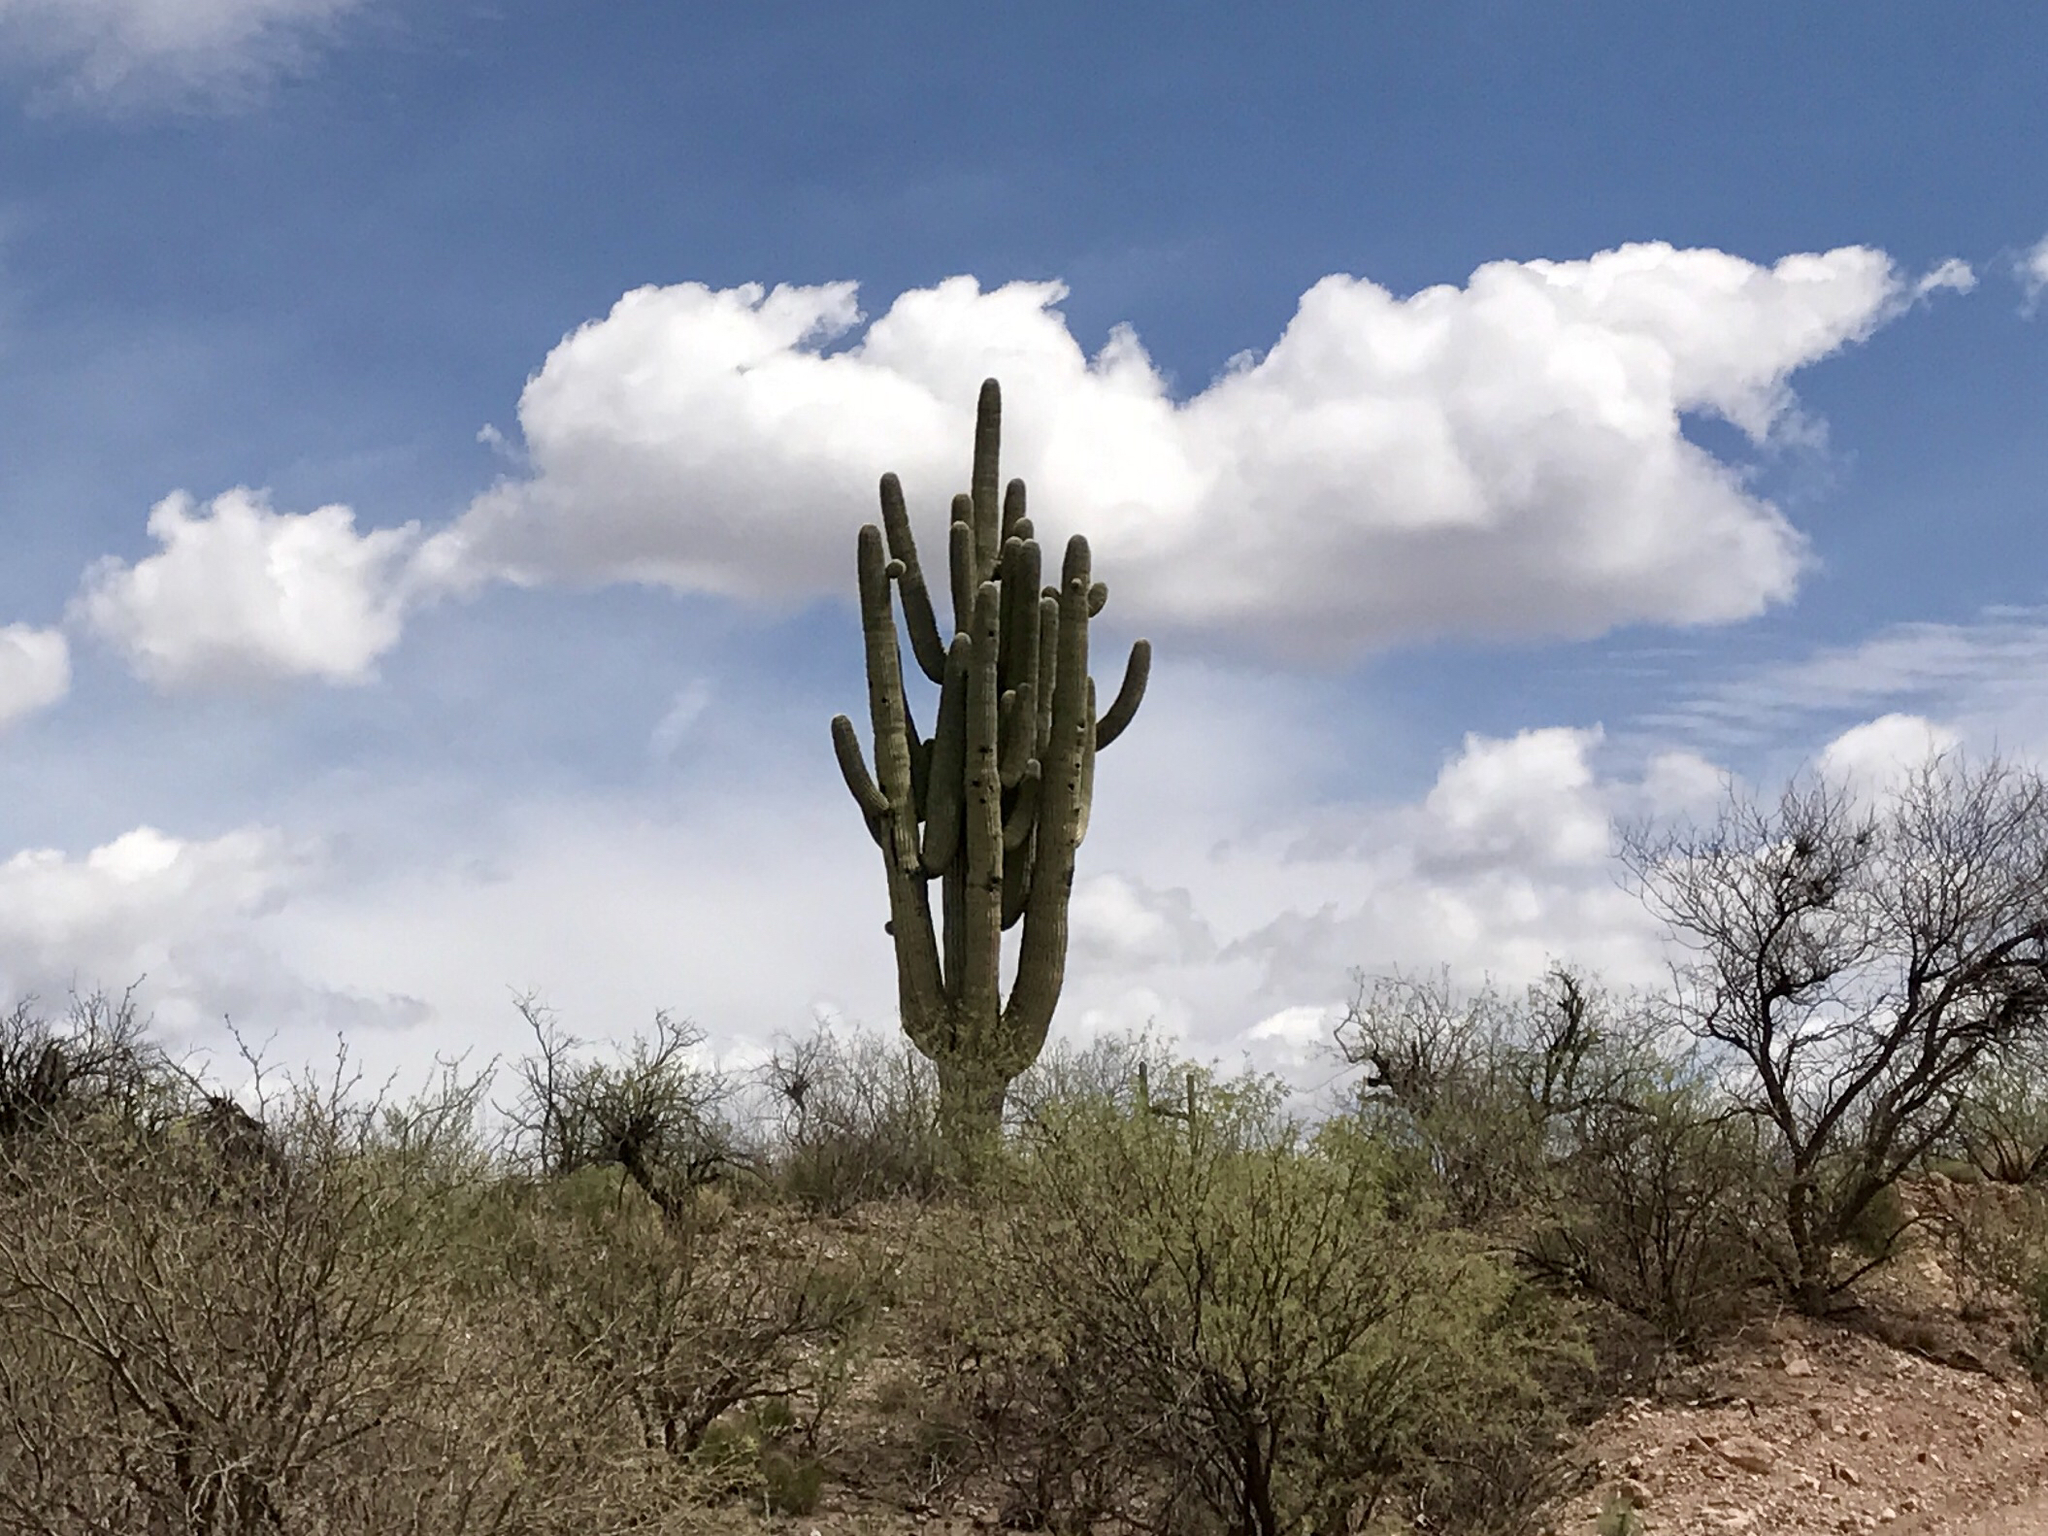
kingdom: Plantae
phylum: Tracheophyta
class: Magnoliopsida
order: Caryophyllales
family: Cactaceae
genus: Carnegiea
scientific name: Carnegiea gigantea
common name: Saguaro
